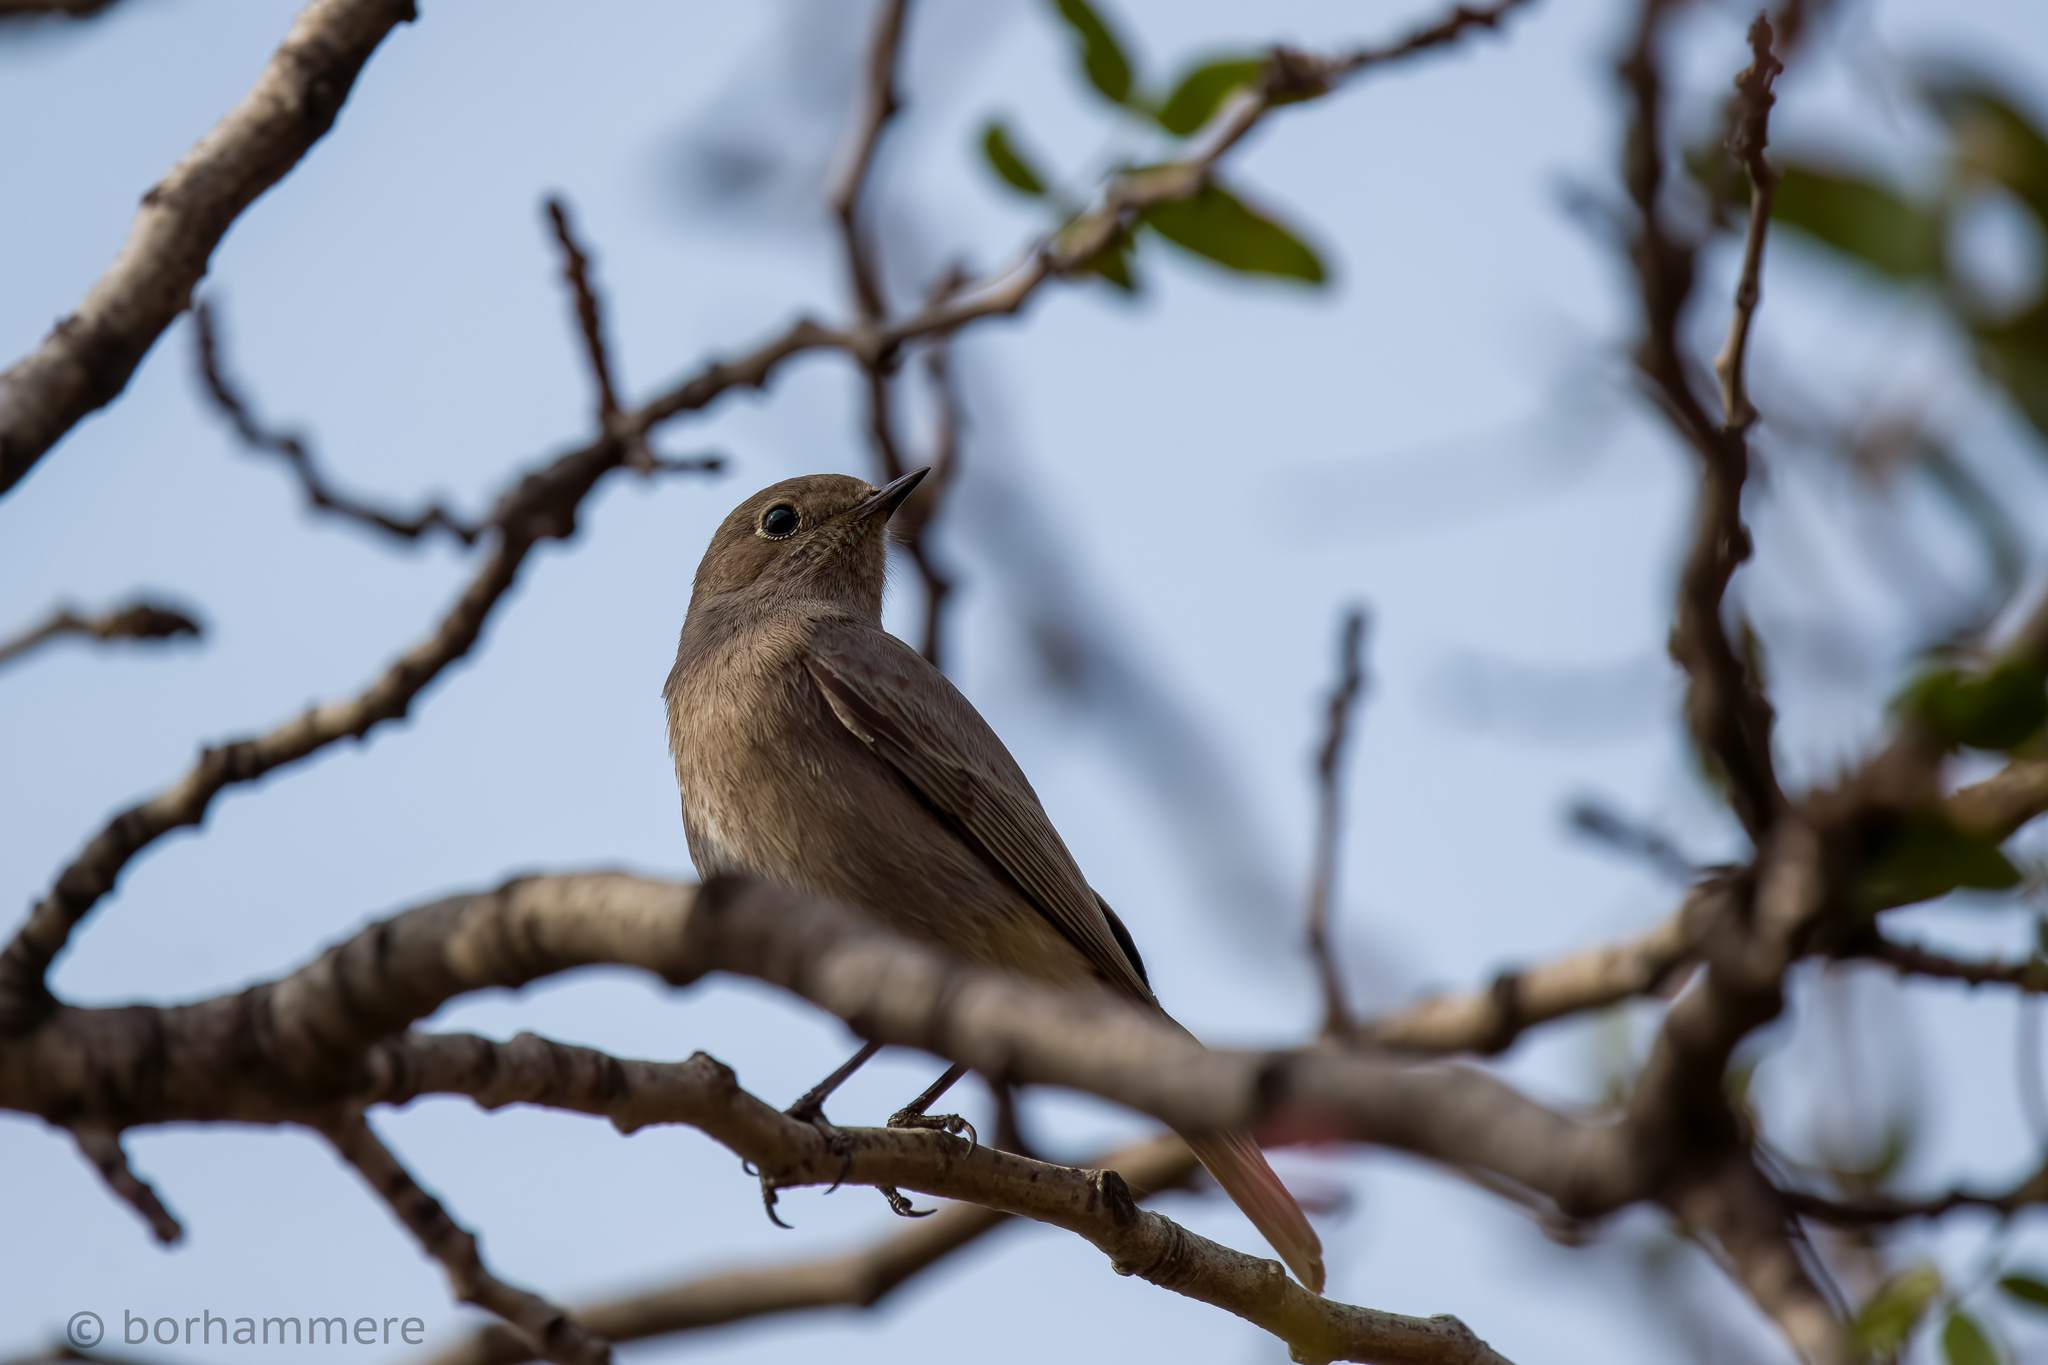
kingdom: Animalia
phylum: Chordata
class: Aves
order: Passeriformes
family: Muscicapidae
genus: Phoenicurus
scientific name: Phoenicurus ochruros
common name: Black redstart
